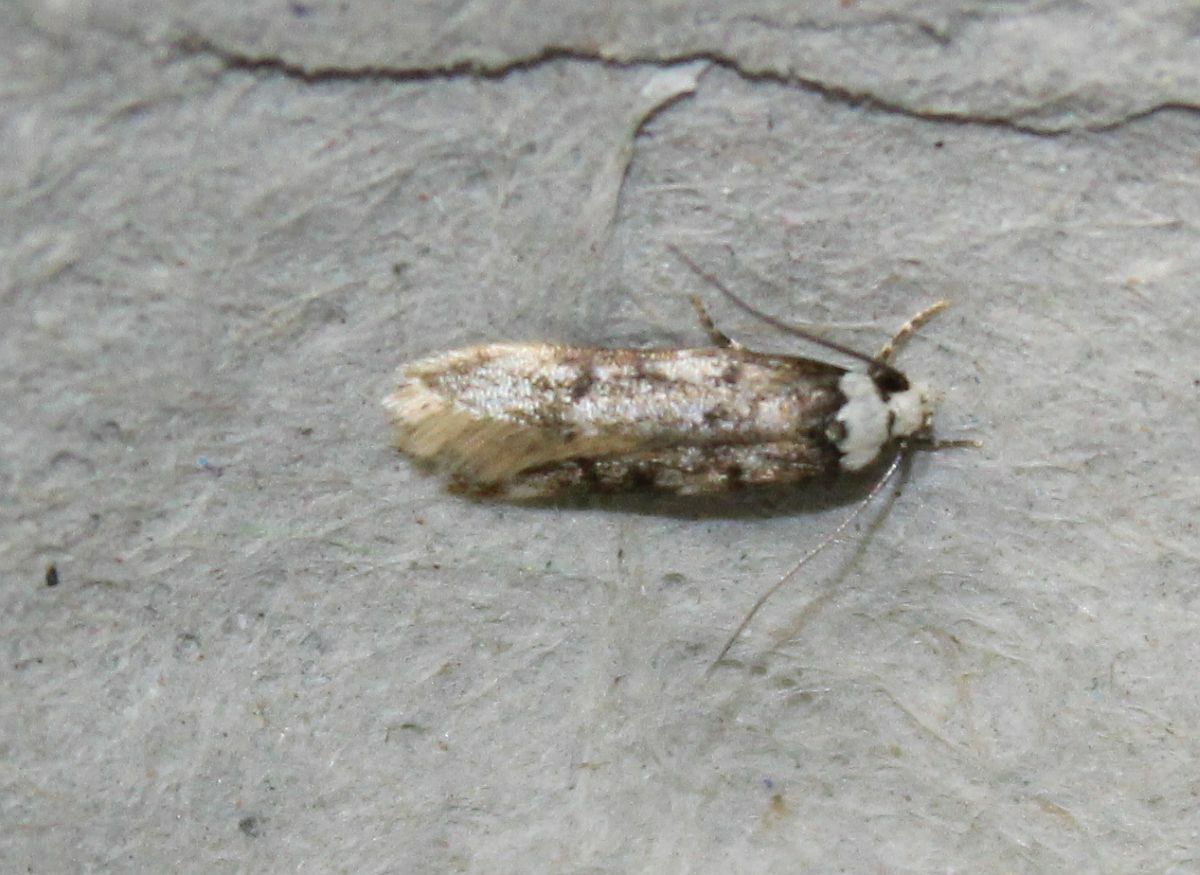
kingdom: Animalia
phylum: Arthropoda
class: Insecta
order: Lepidoptera
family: Oecophoridae
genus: Endrosis
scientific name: Endrosis sarcitrella
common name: White-shouldered house moth
